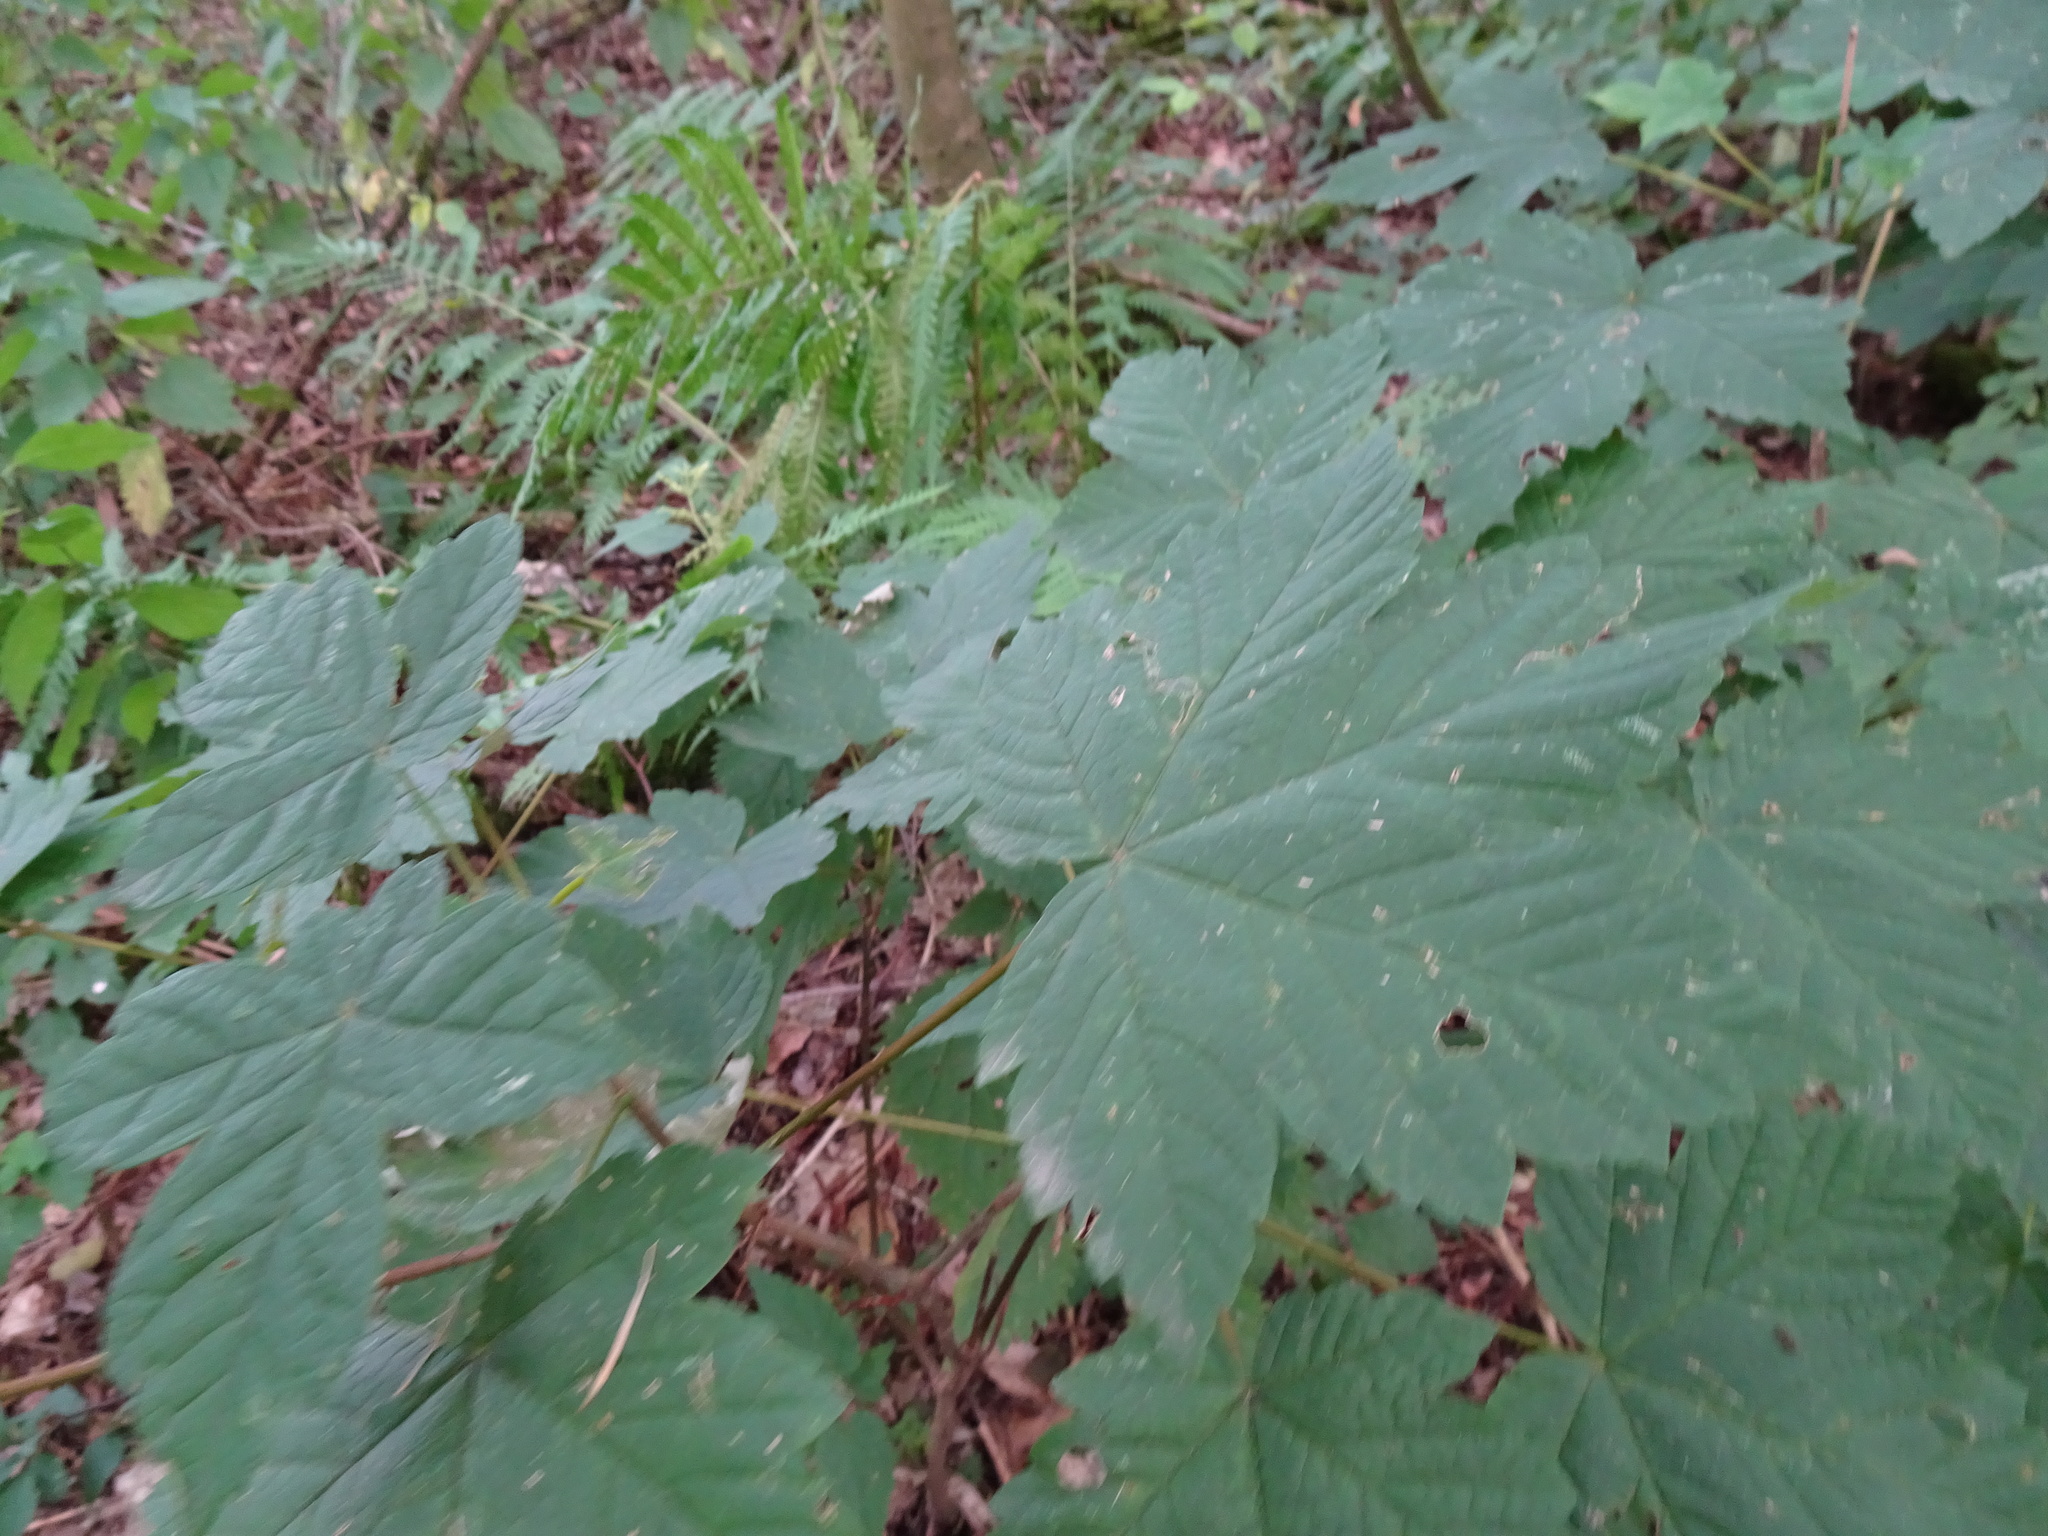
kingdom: Plantae
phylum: Tracheophyta
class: Magnoliopsida
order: Sapindales
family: Sapindaceae
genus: Acer
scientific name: Acer pseudoplatanus
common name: Sycamore
